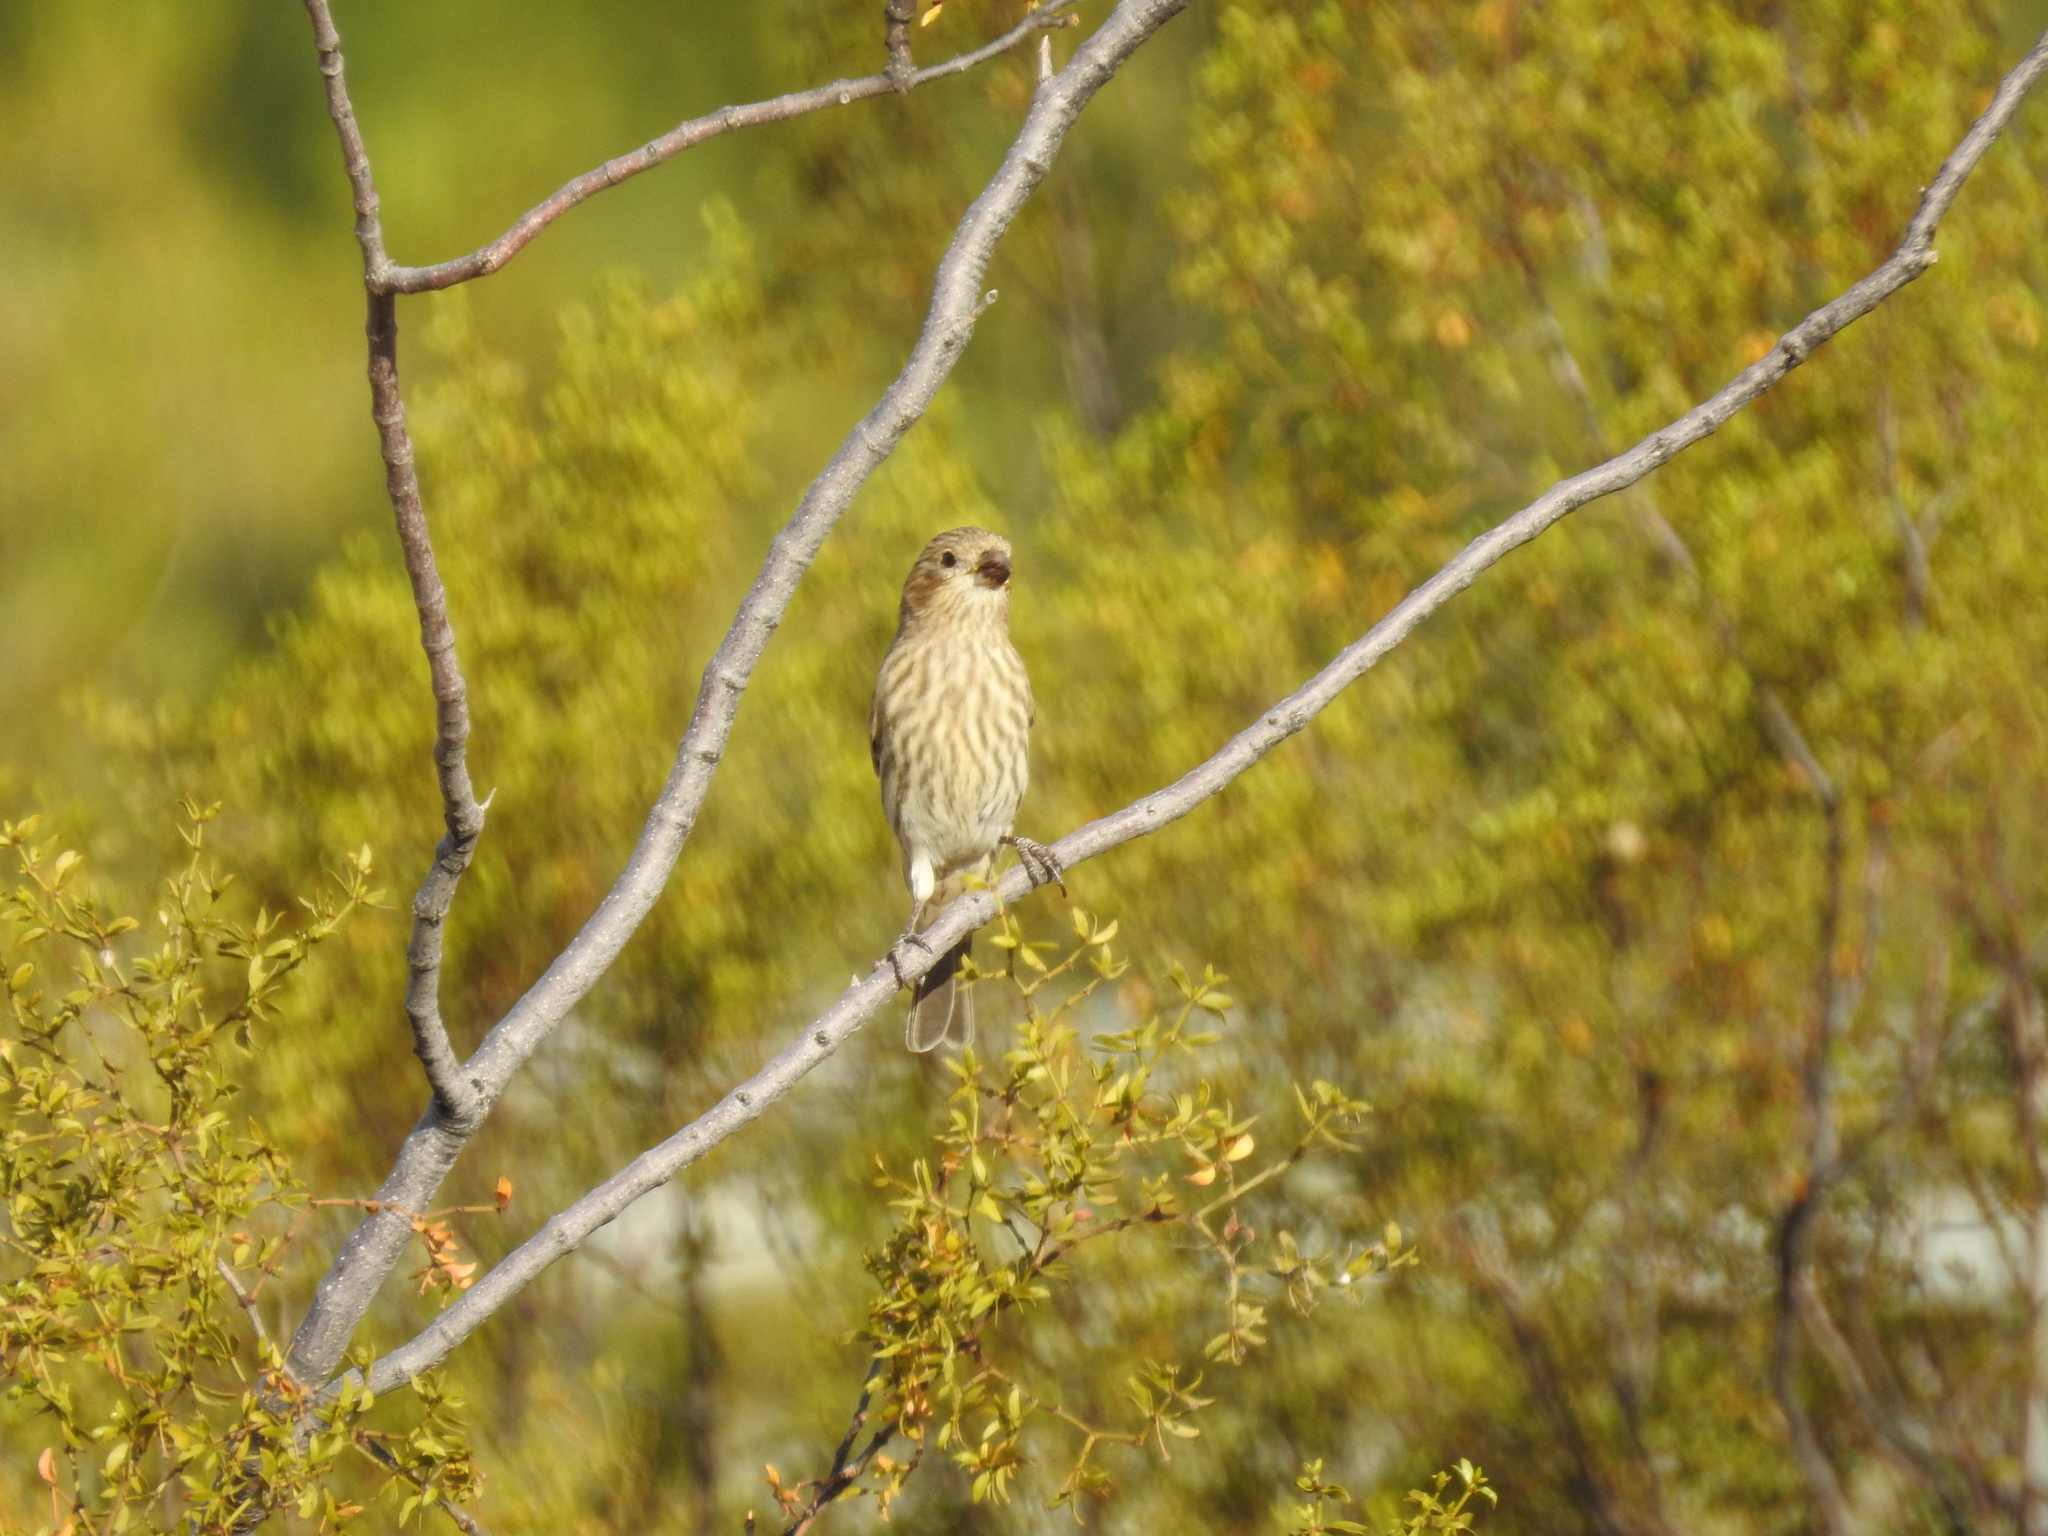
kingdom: Animalia
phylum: Chordata
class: Aves
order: Passeriformes
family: Fringillidae
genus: Haemorhous
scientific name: Haemorhous mexicanus
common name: House finch
